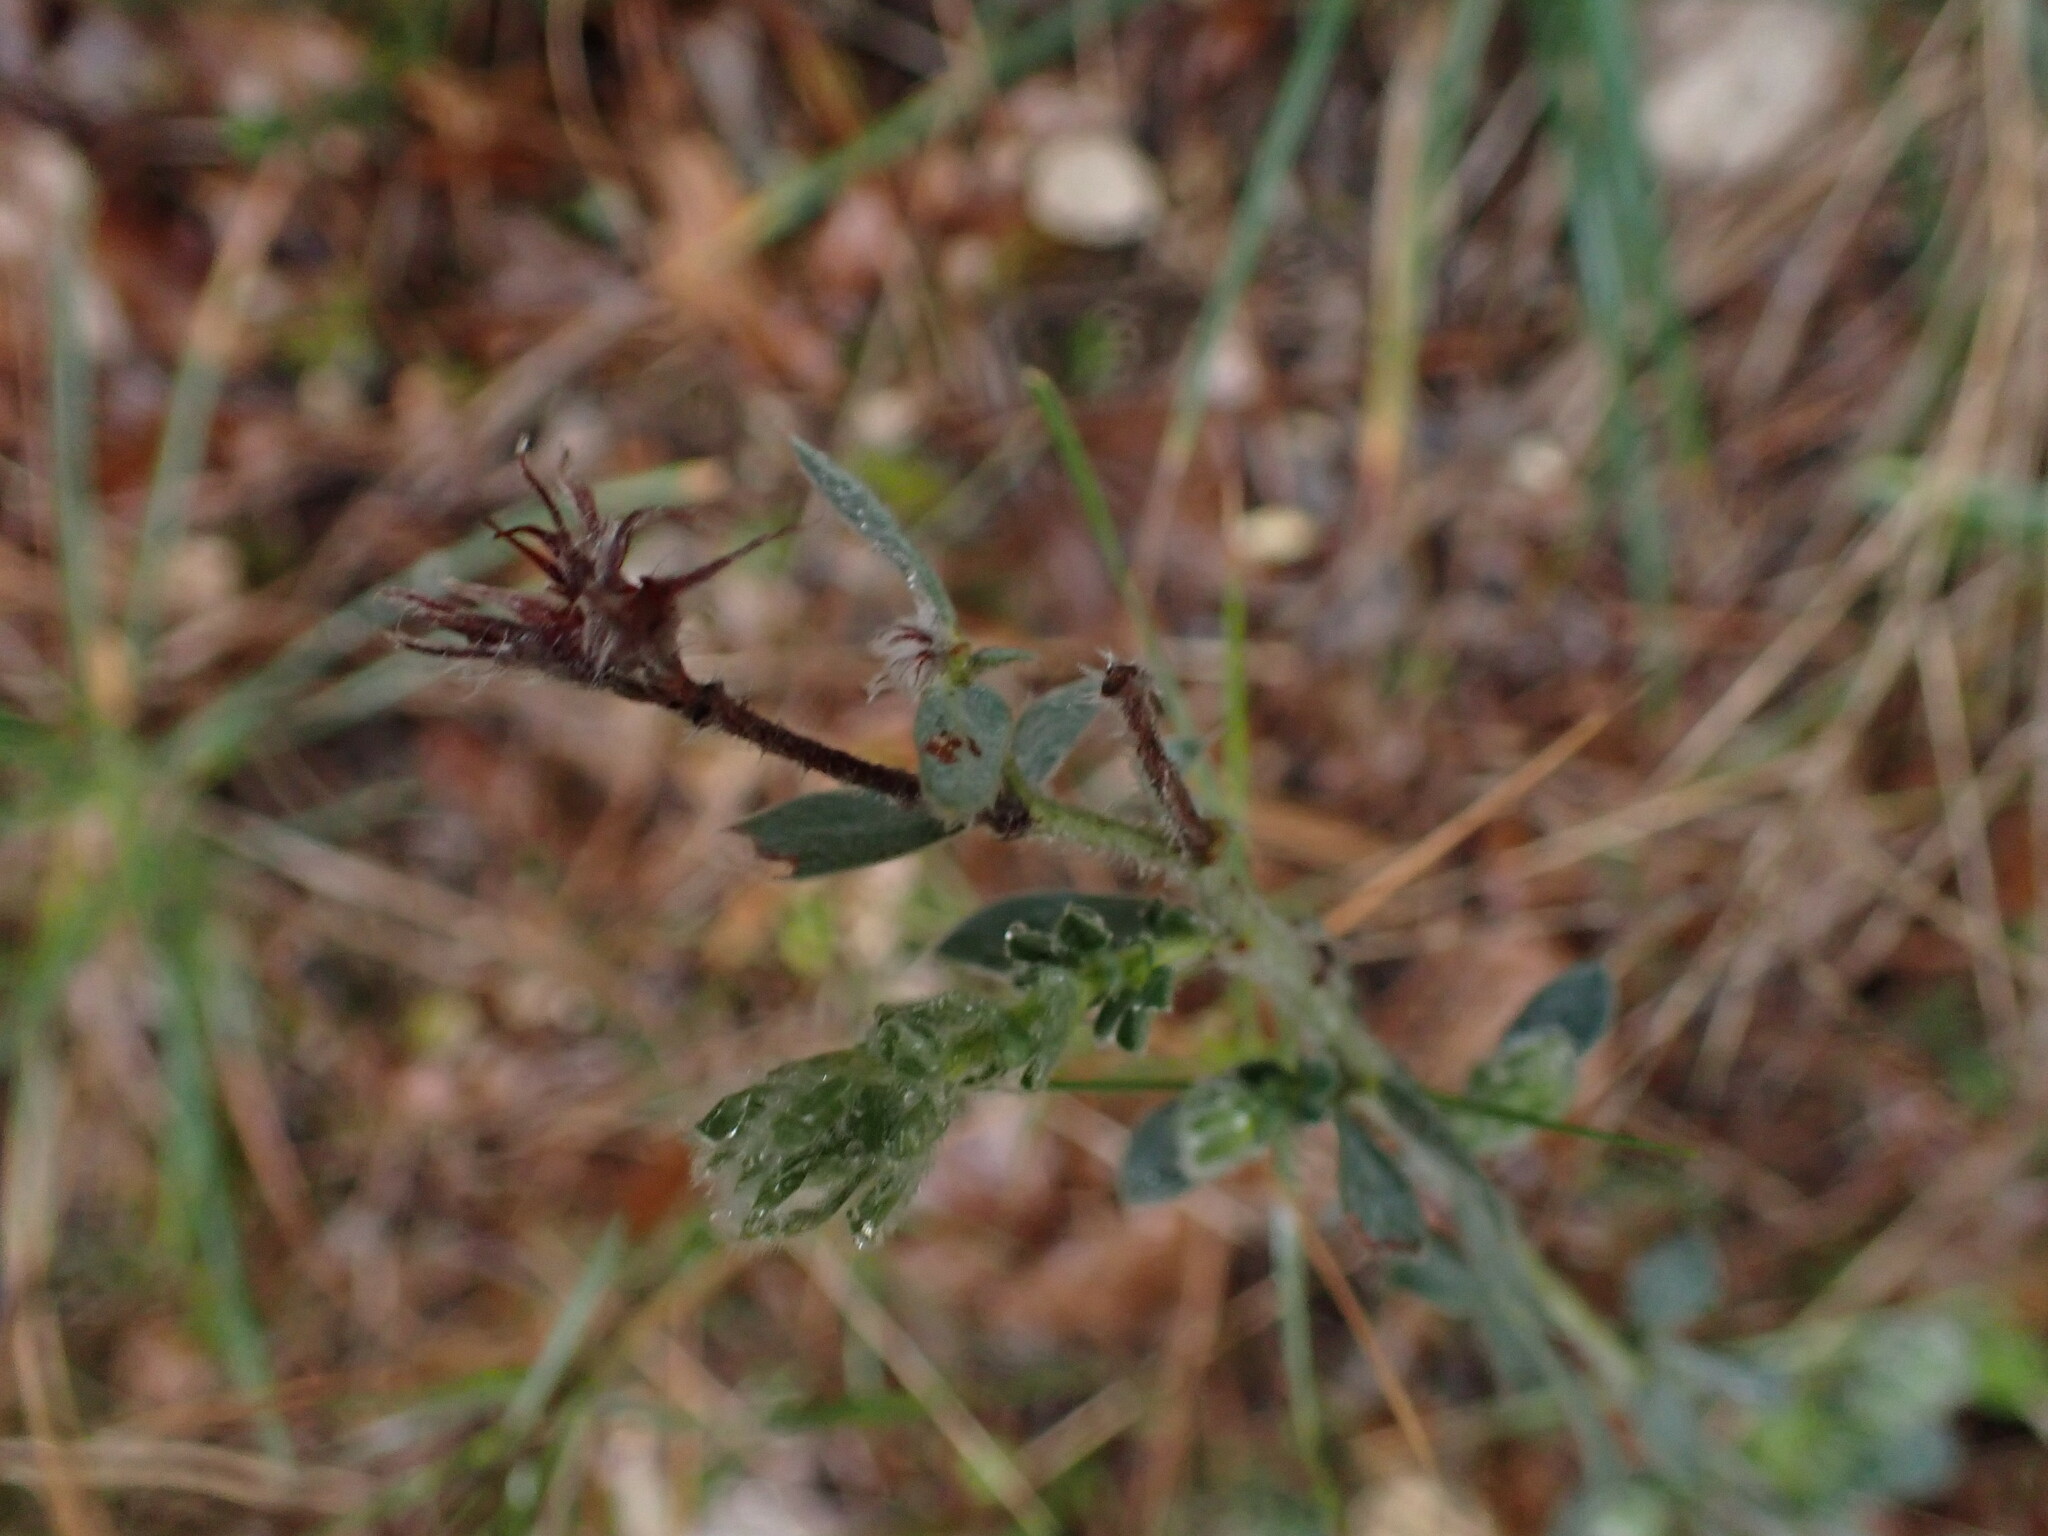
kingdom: Plantae
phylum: Tracheophyta
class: Magnoliopsida
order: Fabales
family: Fabaceae
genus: Lotus
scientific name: Lotus hirsutus
